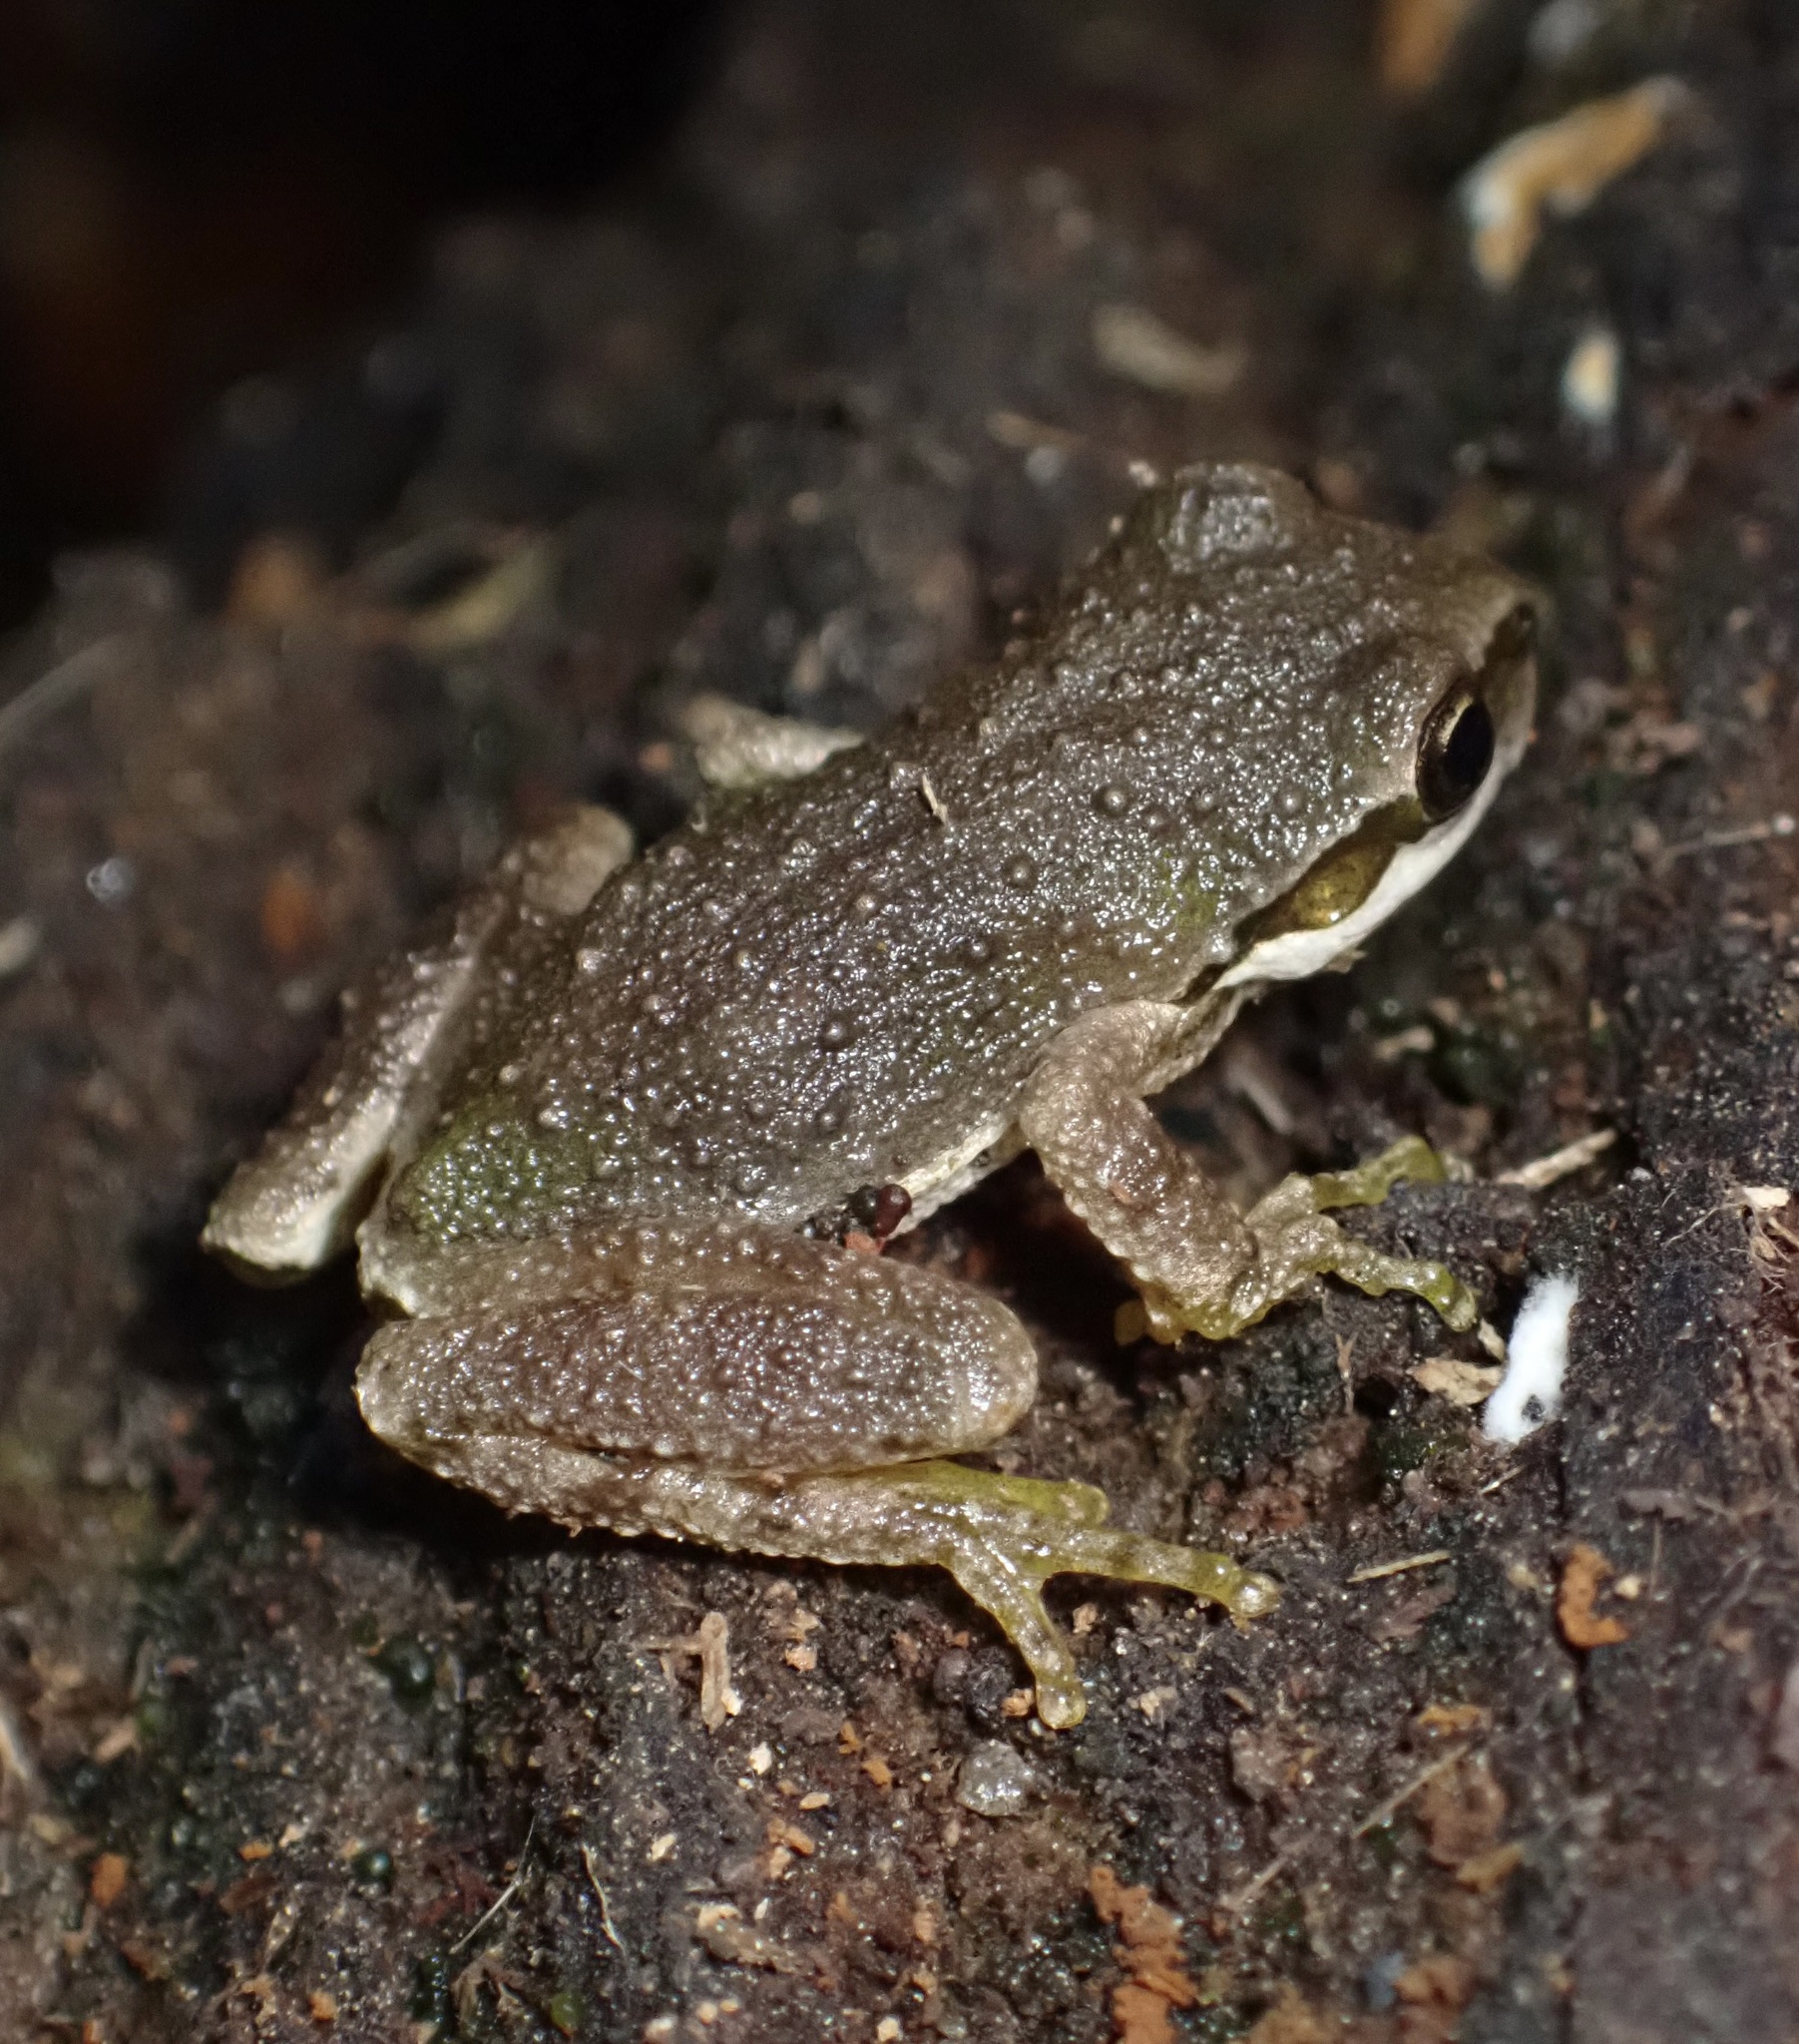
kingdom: Animalia
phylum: Chordata
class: Amphibia
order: Anura
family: Hylidae
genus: Pseudacris
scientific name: Pseudacris regilla
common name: Pacific chorus frog
